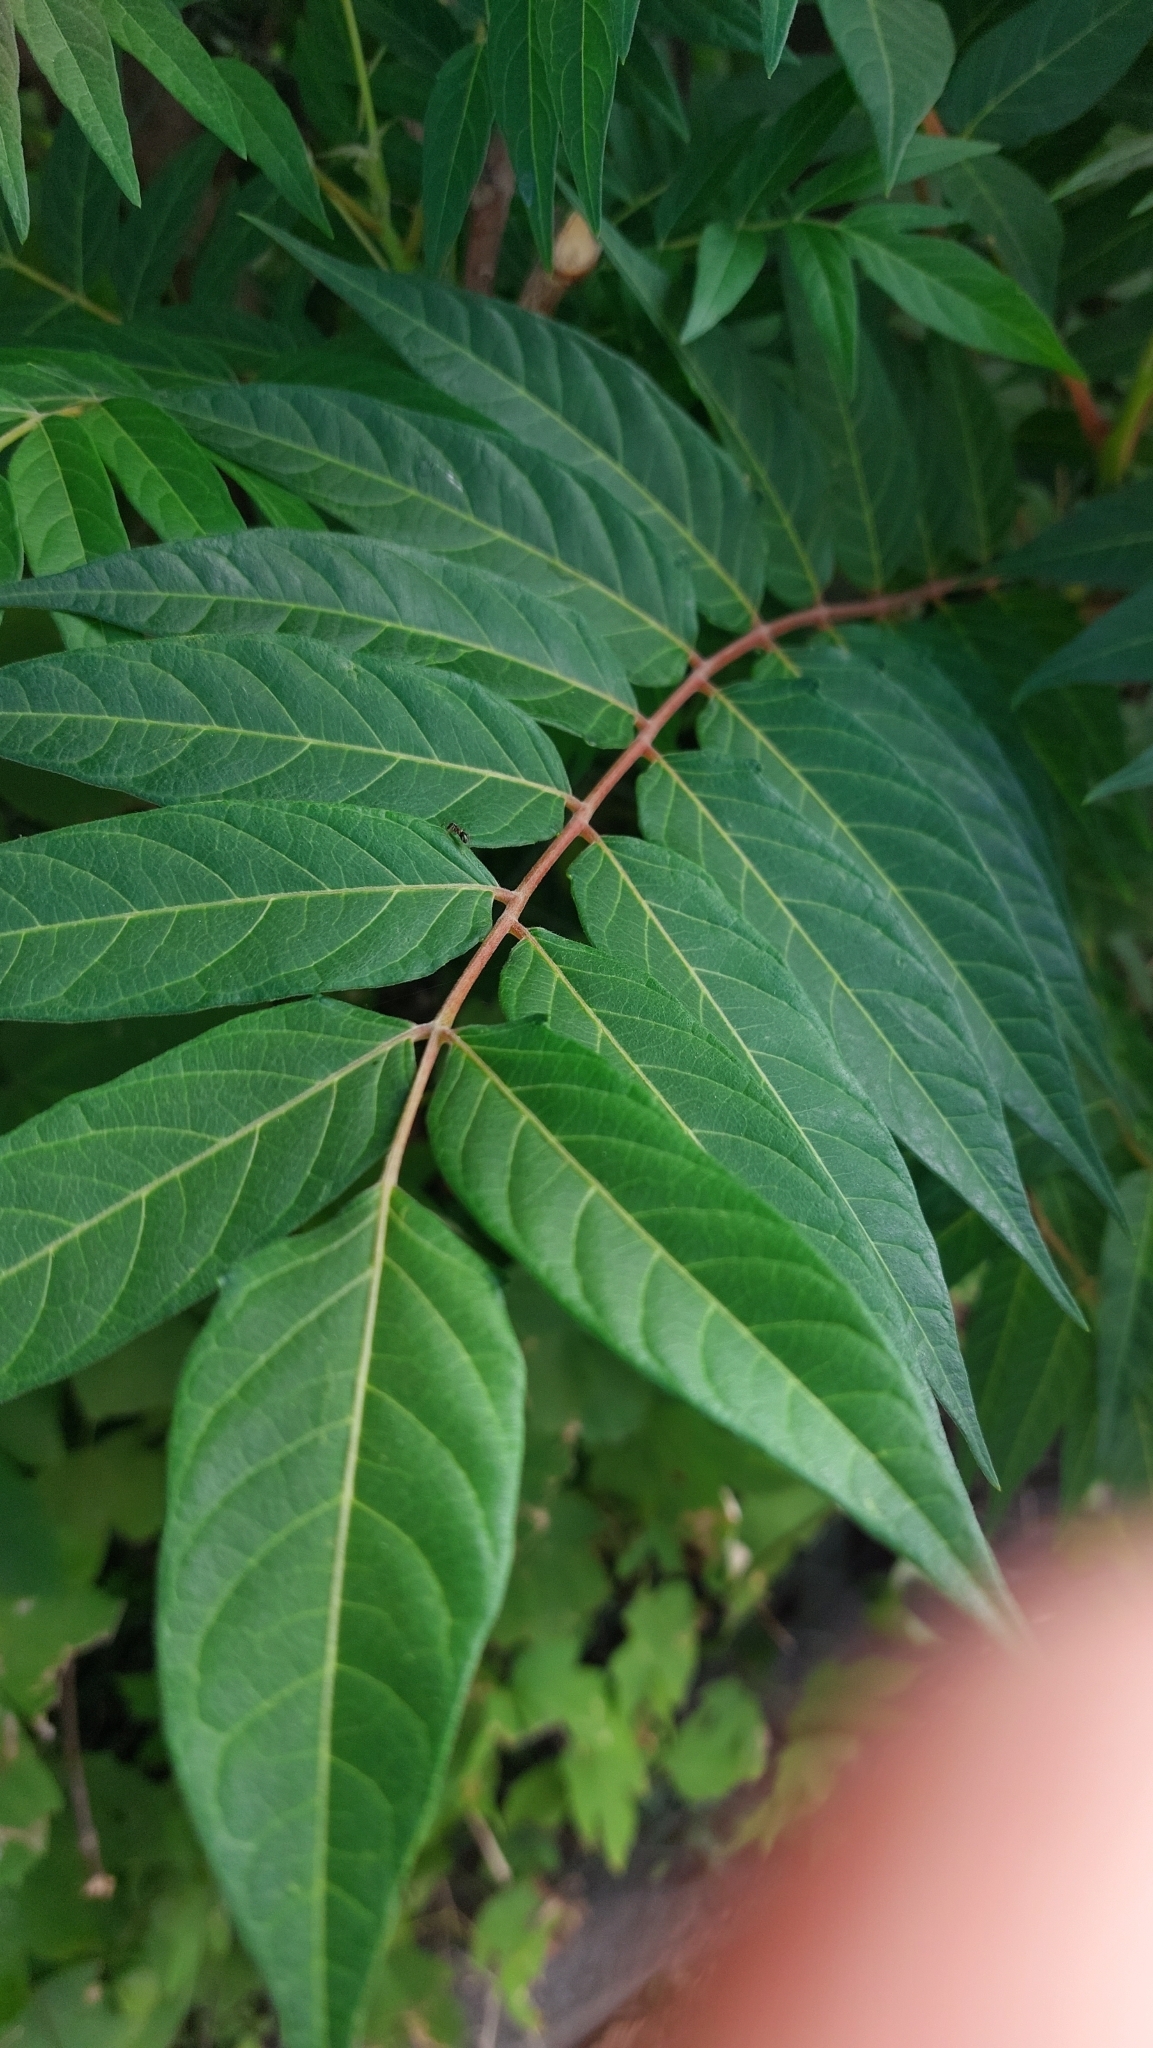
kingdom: Plantae
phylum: Tracheophyta
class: Magnoliopsida
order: Sapindales
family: Simaroubaceae
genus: Ailanthus
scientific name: Ailanthus altissima
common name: Tree-of-heaven
